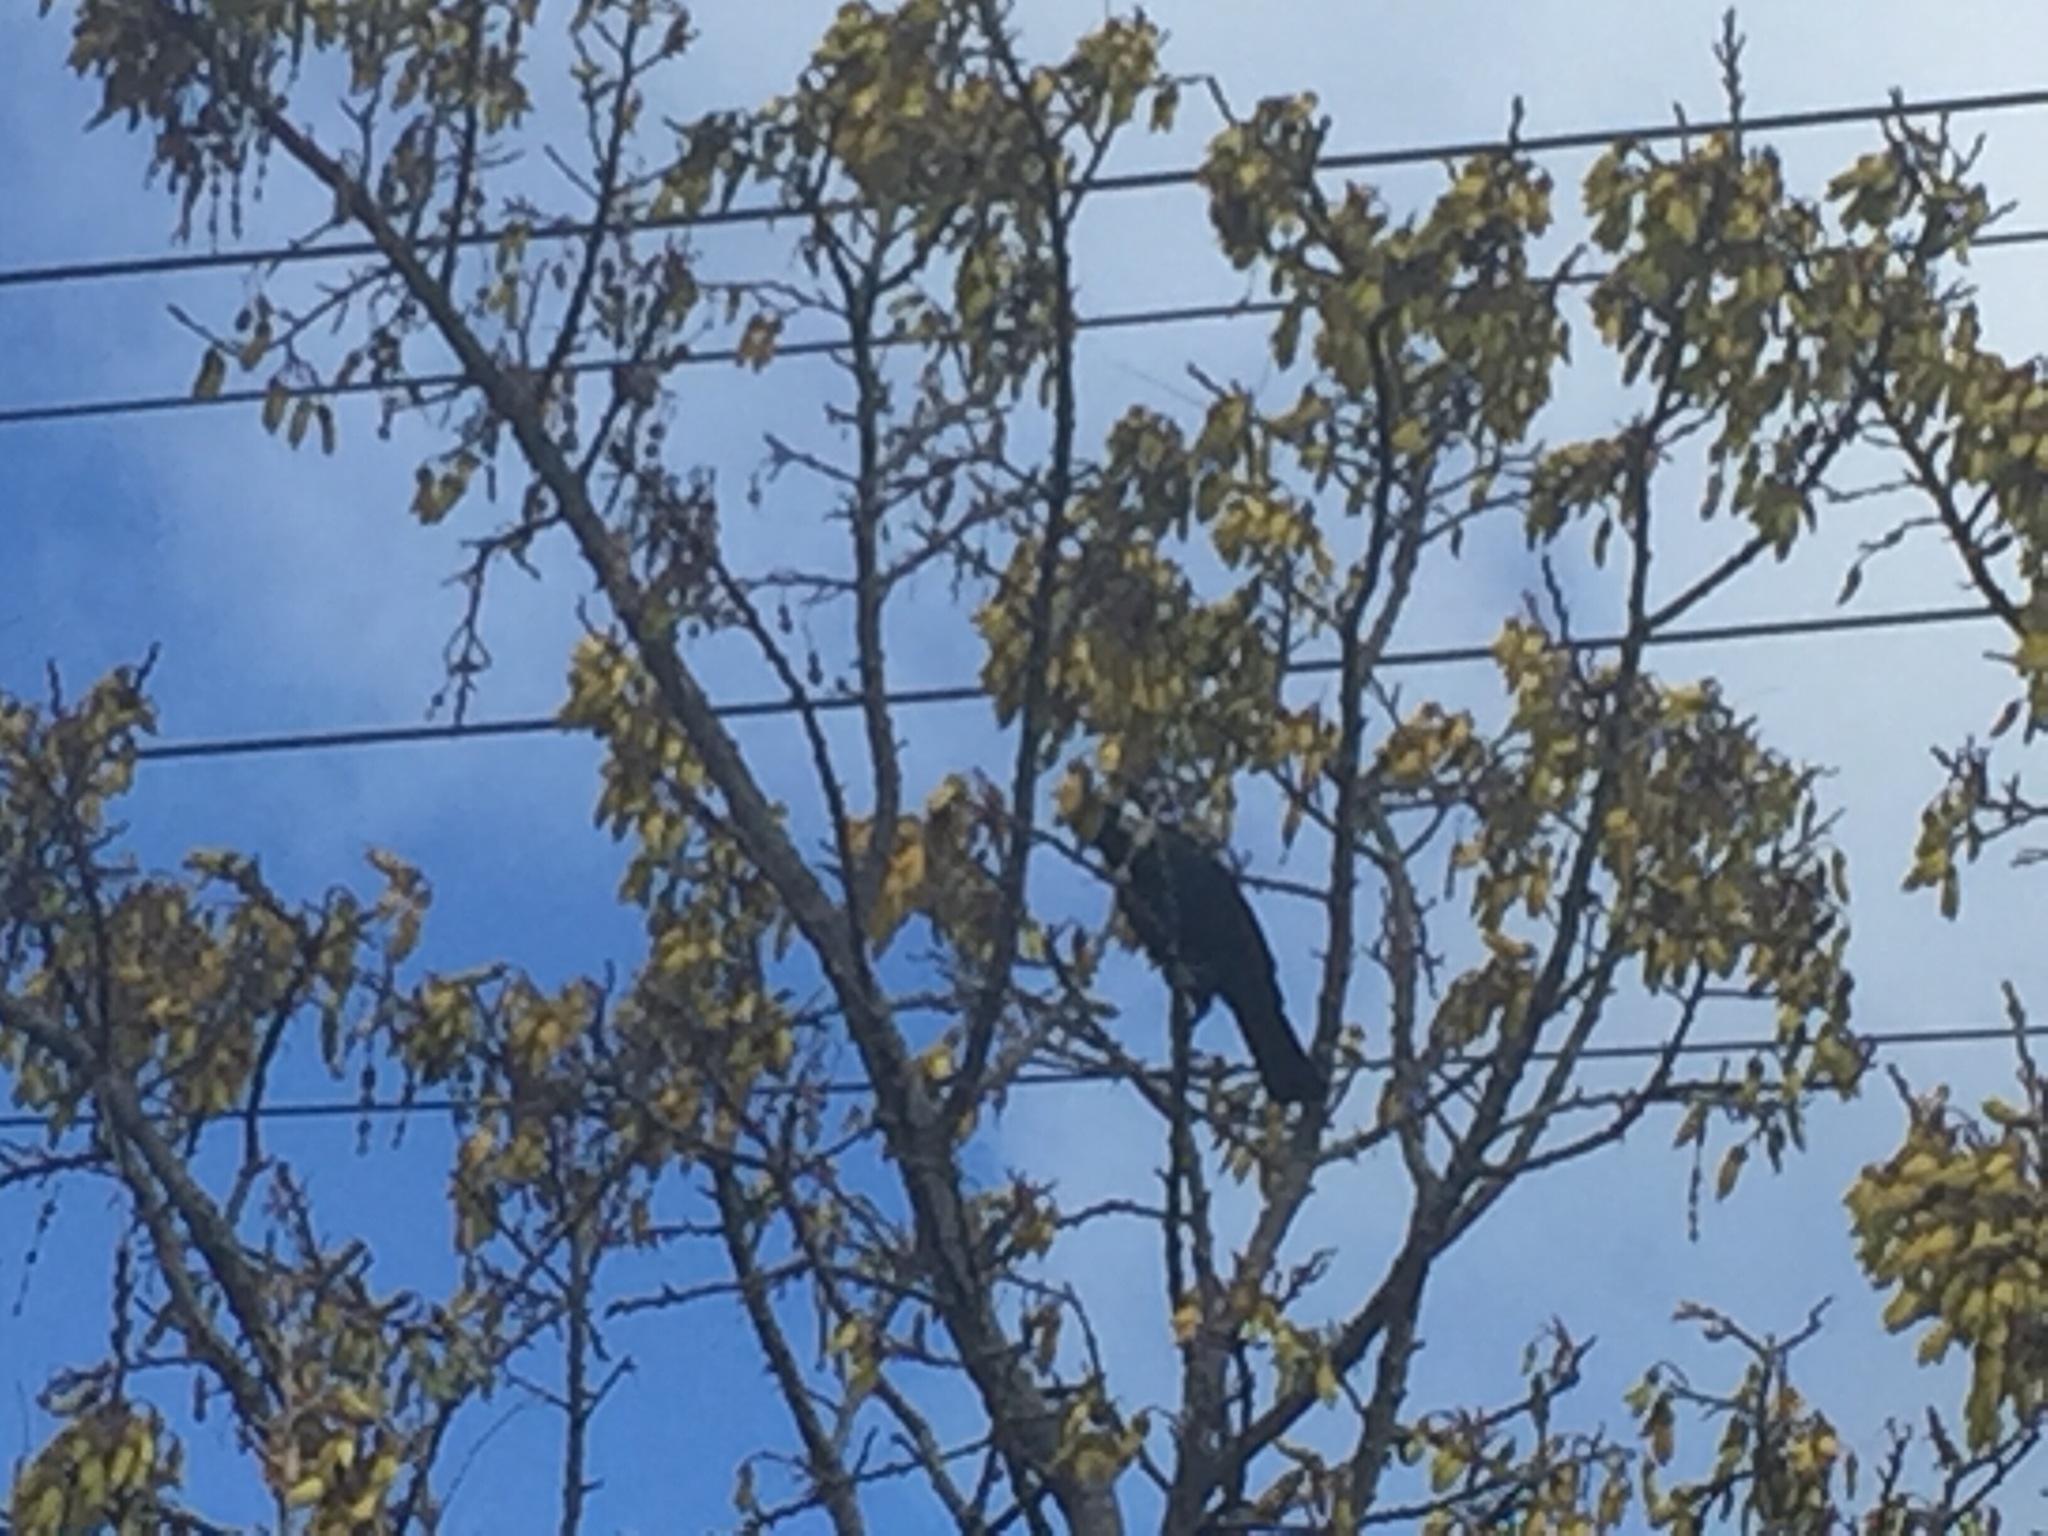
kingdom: Animalia
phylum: Chordata
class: Aves
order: Passeriformes
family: Meliphagidae
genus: Prosthemadera
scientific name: Prosthemadera novaeseelandiae
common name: Tui
